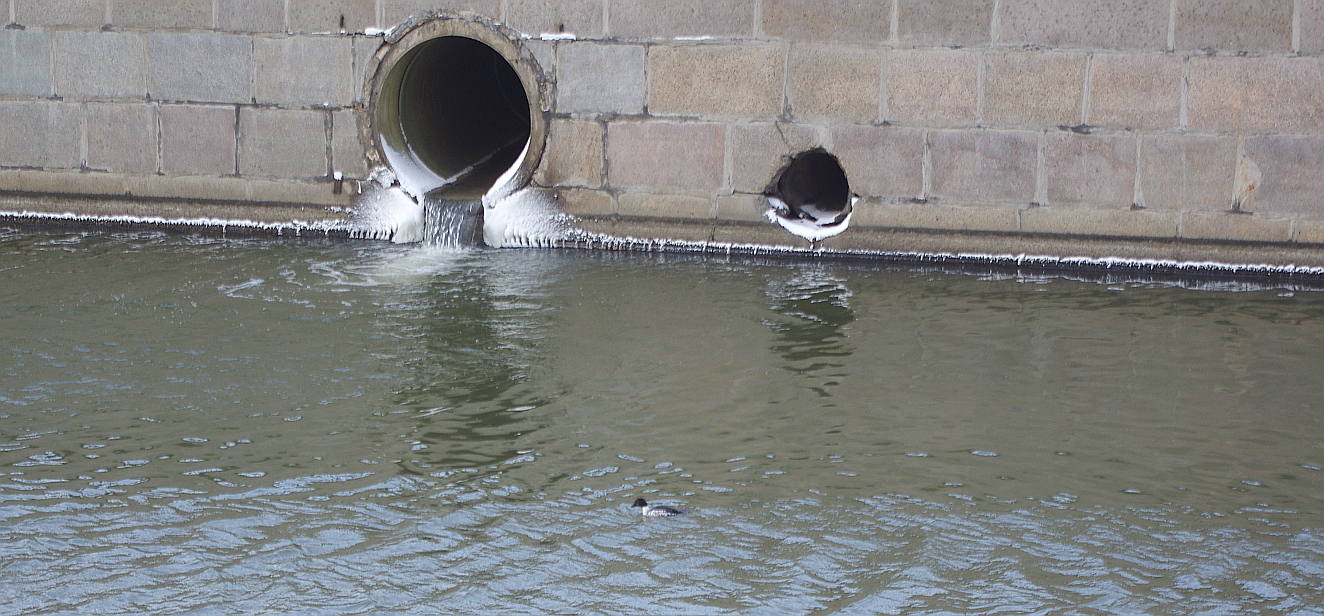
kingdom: Animalia
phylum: Chordata
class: Aves
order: Anseriformes
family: Anatidae
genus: Bucephala
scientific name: Bucephala clangula
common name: Common goldeneye
